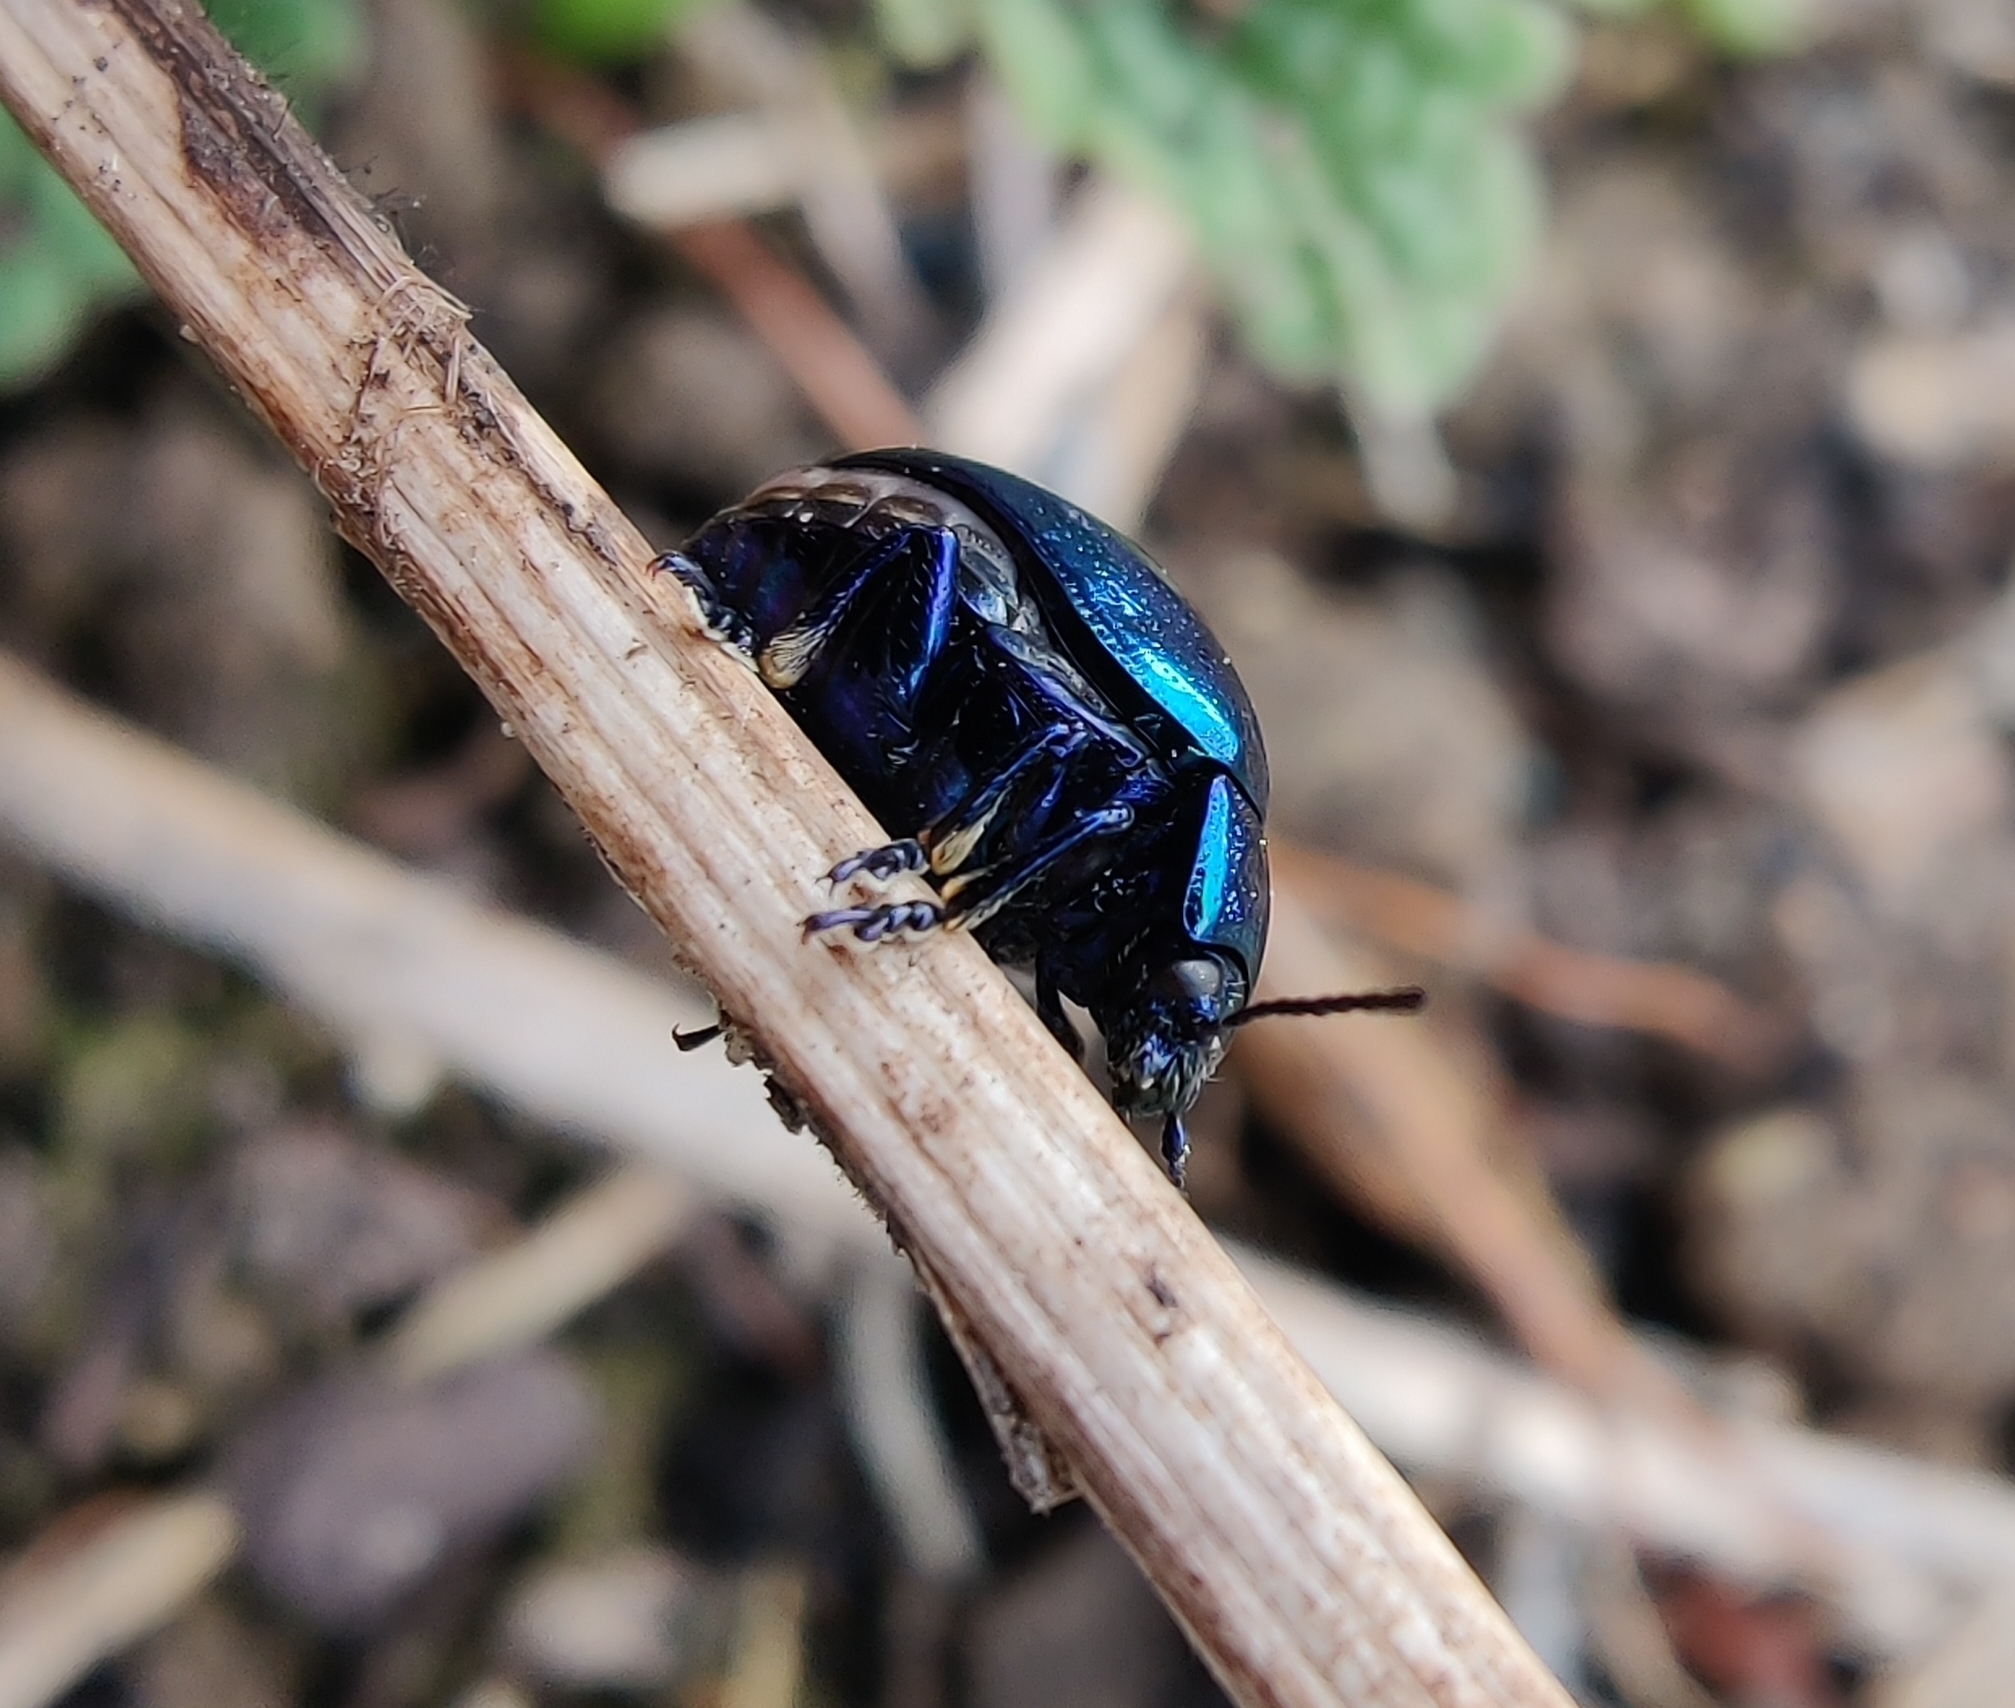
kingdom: Animalia
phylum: Arthropoda
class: Insecta
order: Coleoptera
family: Chrysomelidae
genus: Chrysolina
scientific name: Chrysolina coerulans
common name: Blue mint beetle
